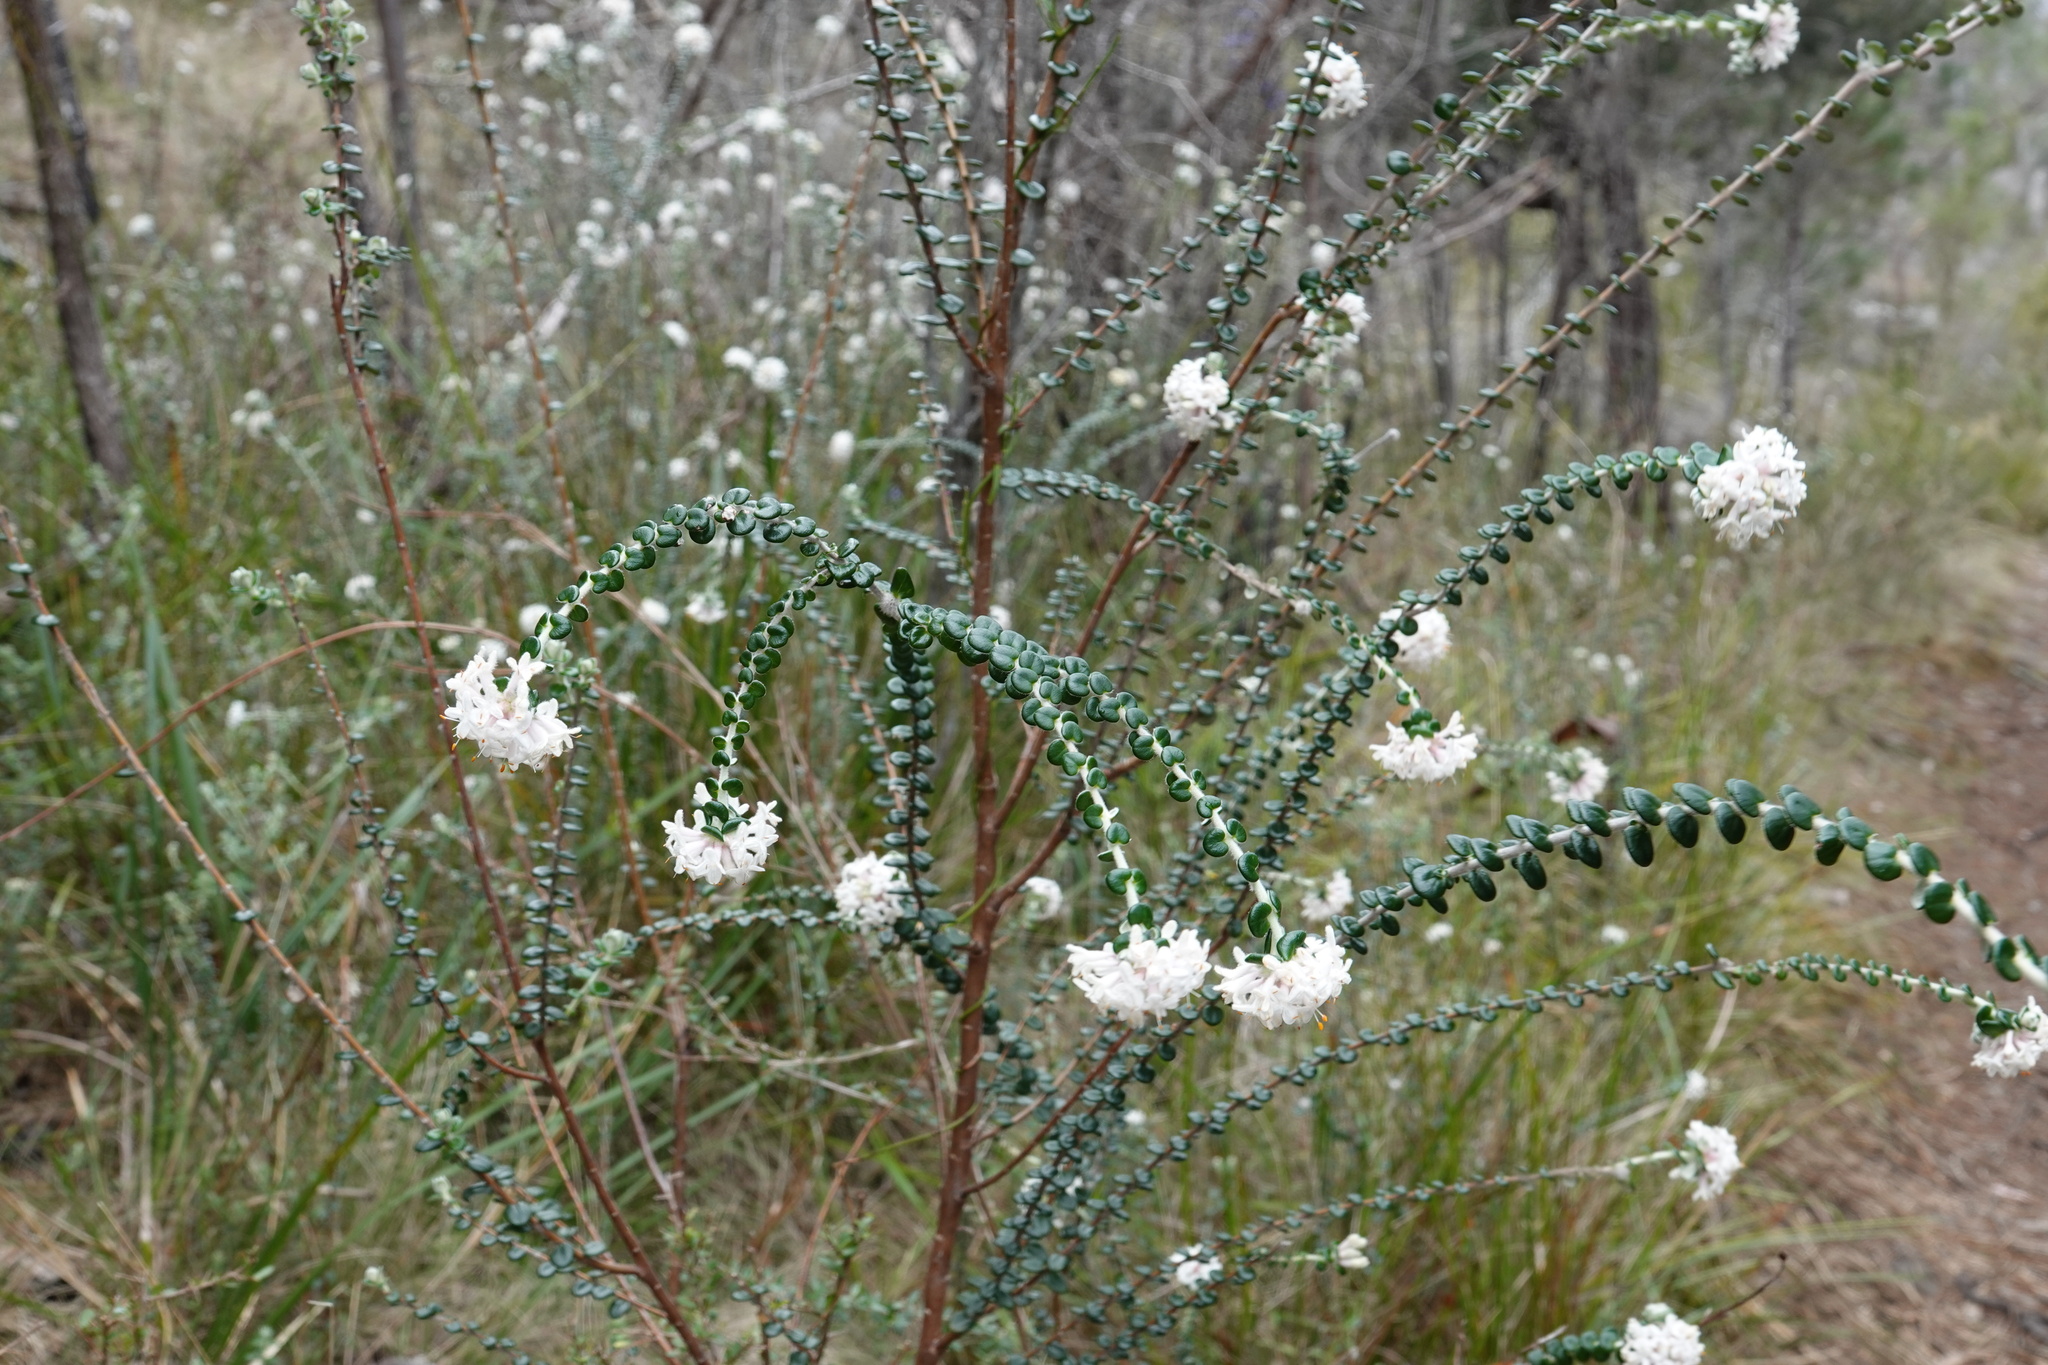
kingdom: Plantae
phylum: Tracheophyta
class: Magnoliopsida
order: Malvales
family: Thymelaeaceae
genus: Pimelea
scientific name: Pimelea nivea
